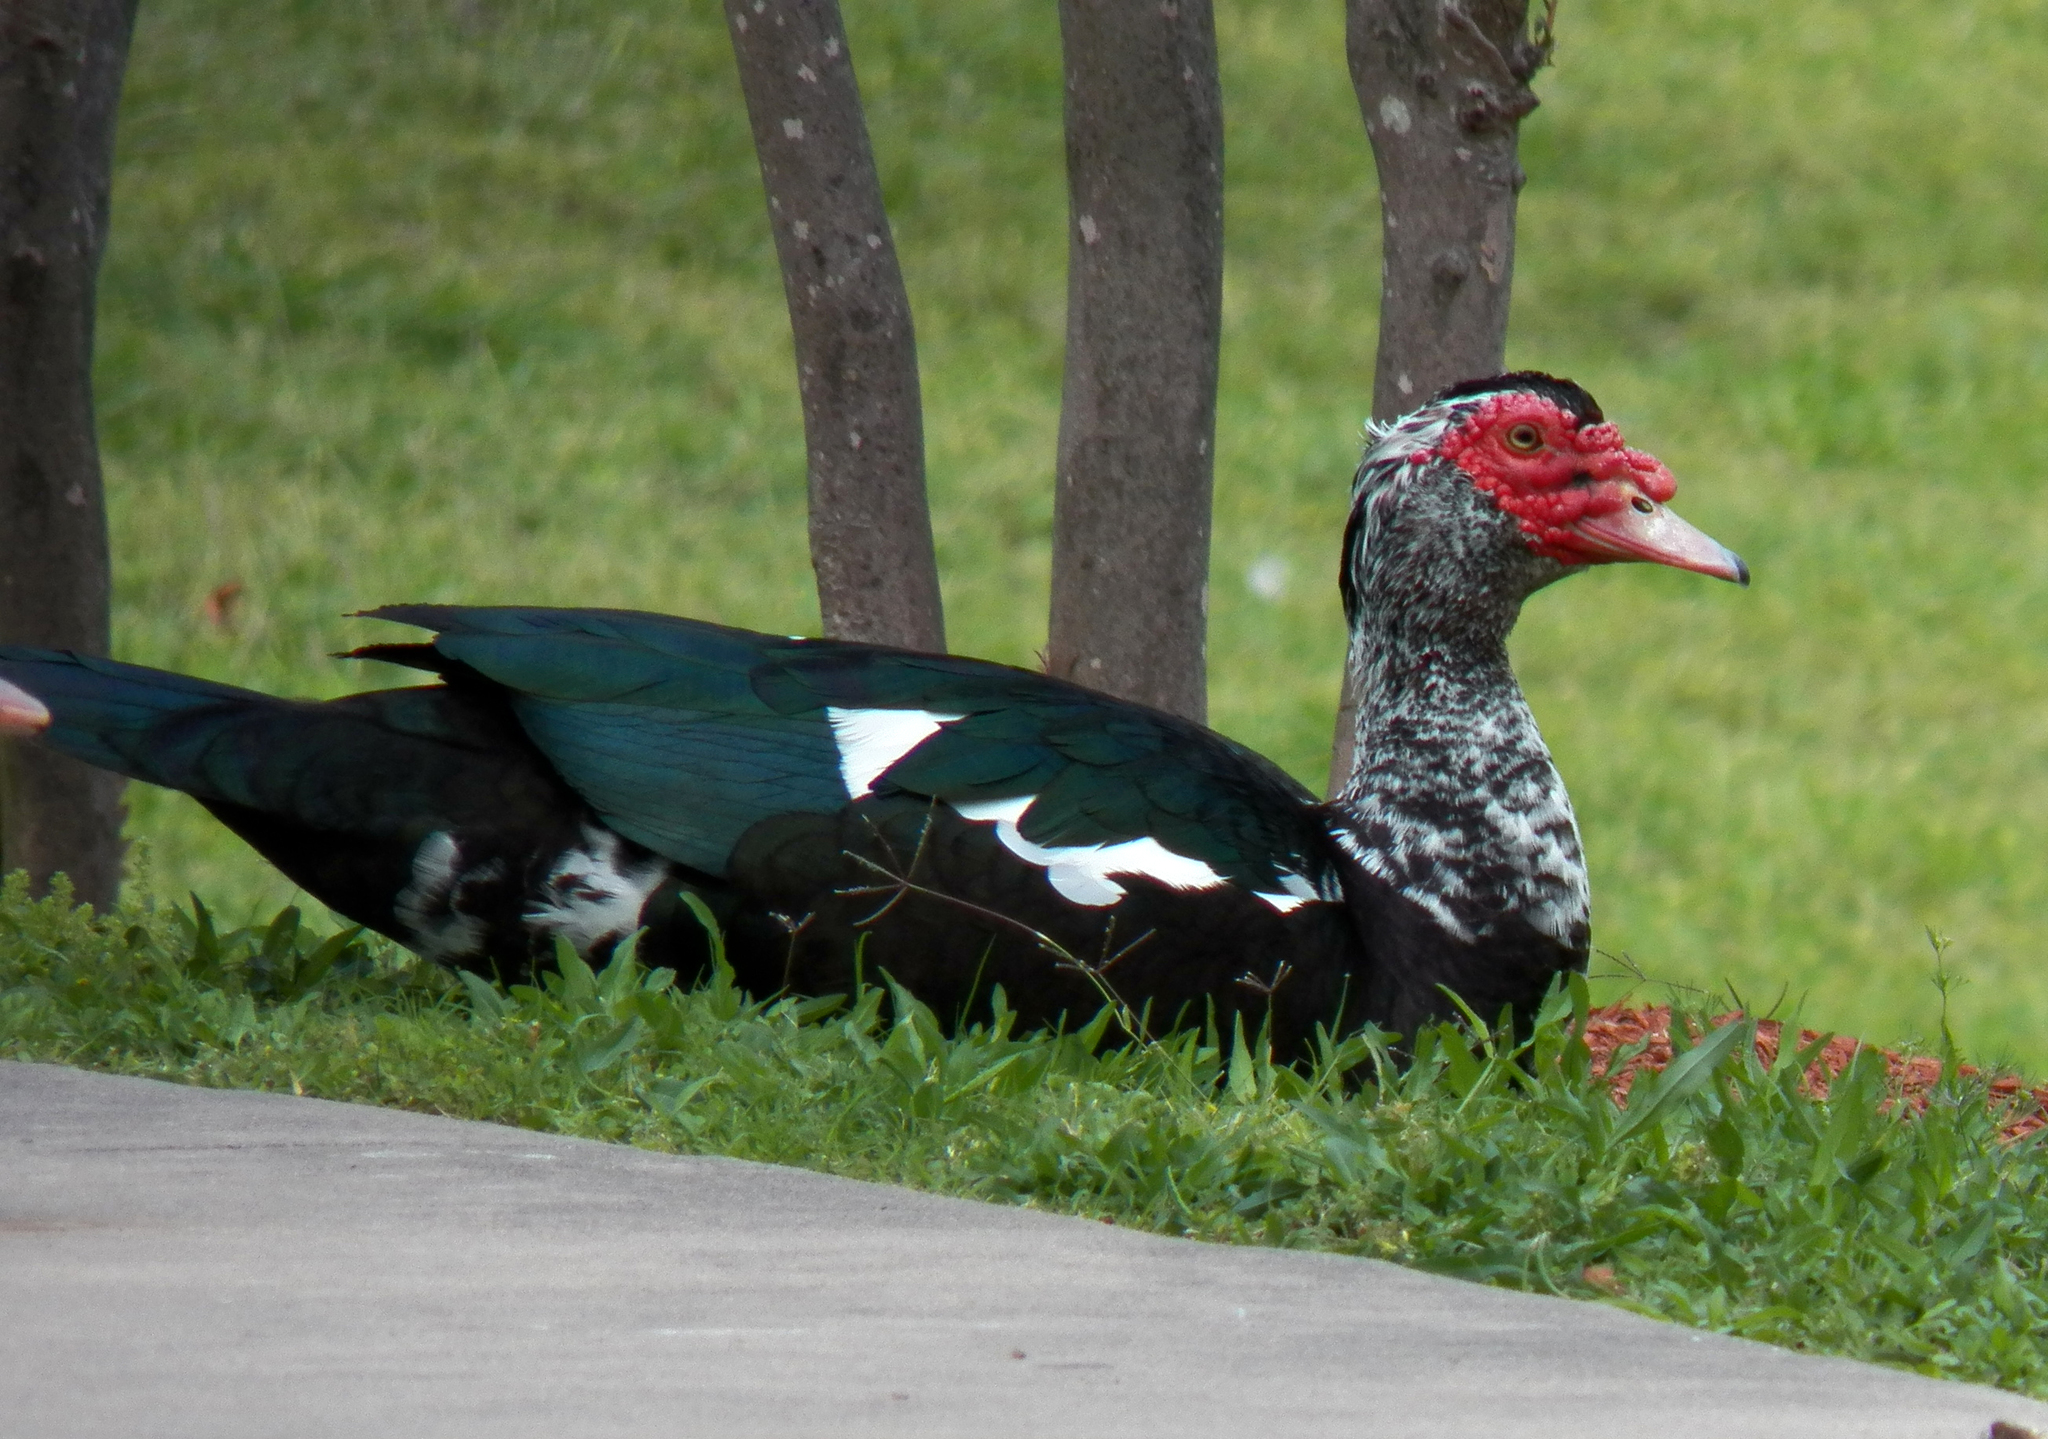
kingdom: Animalia
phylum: Chordata
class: Aves
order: Anseriformes
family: Anatidae
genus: Cairina
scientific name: Cairina moschata
